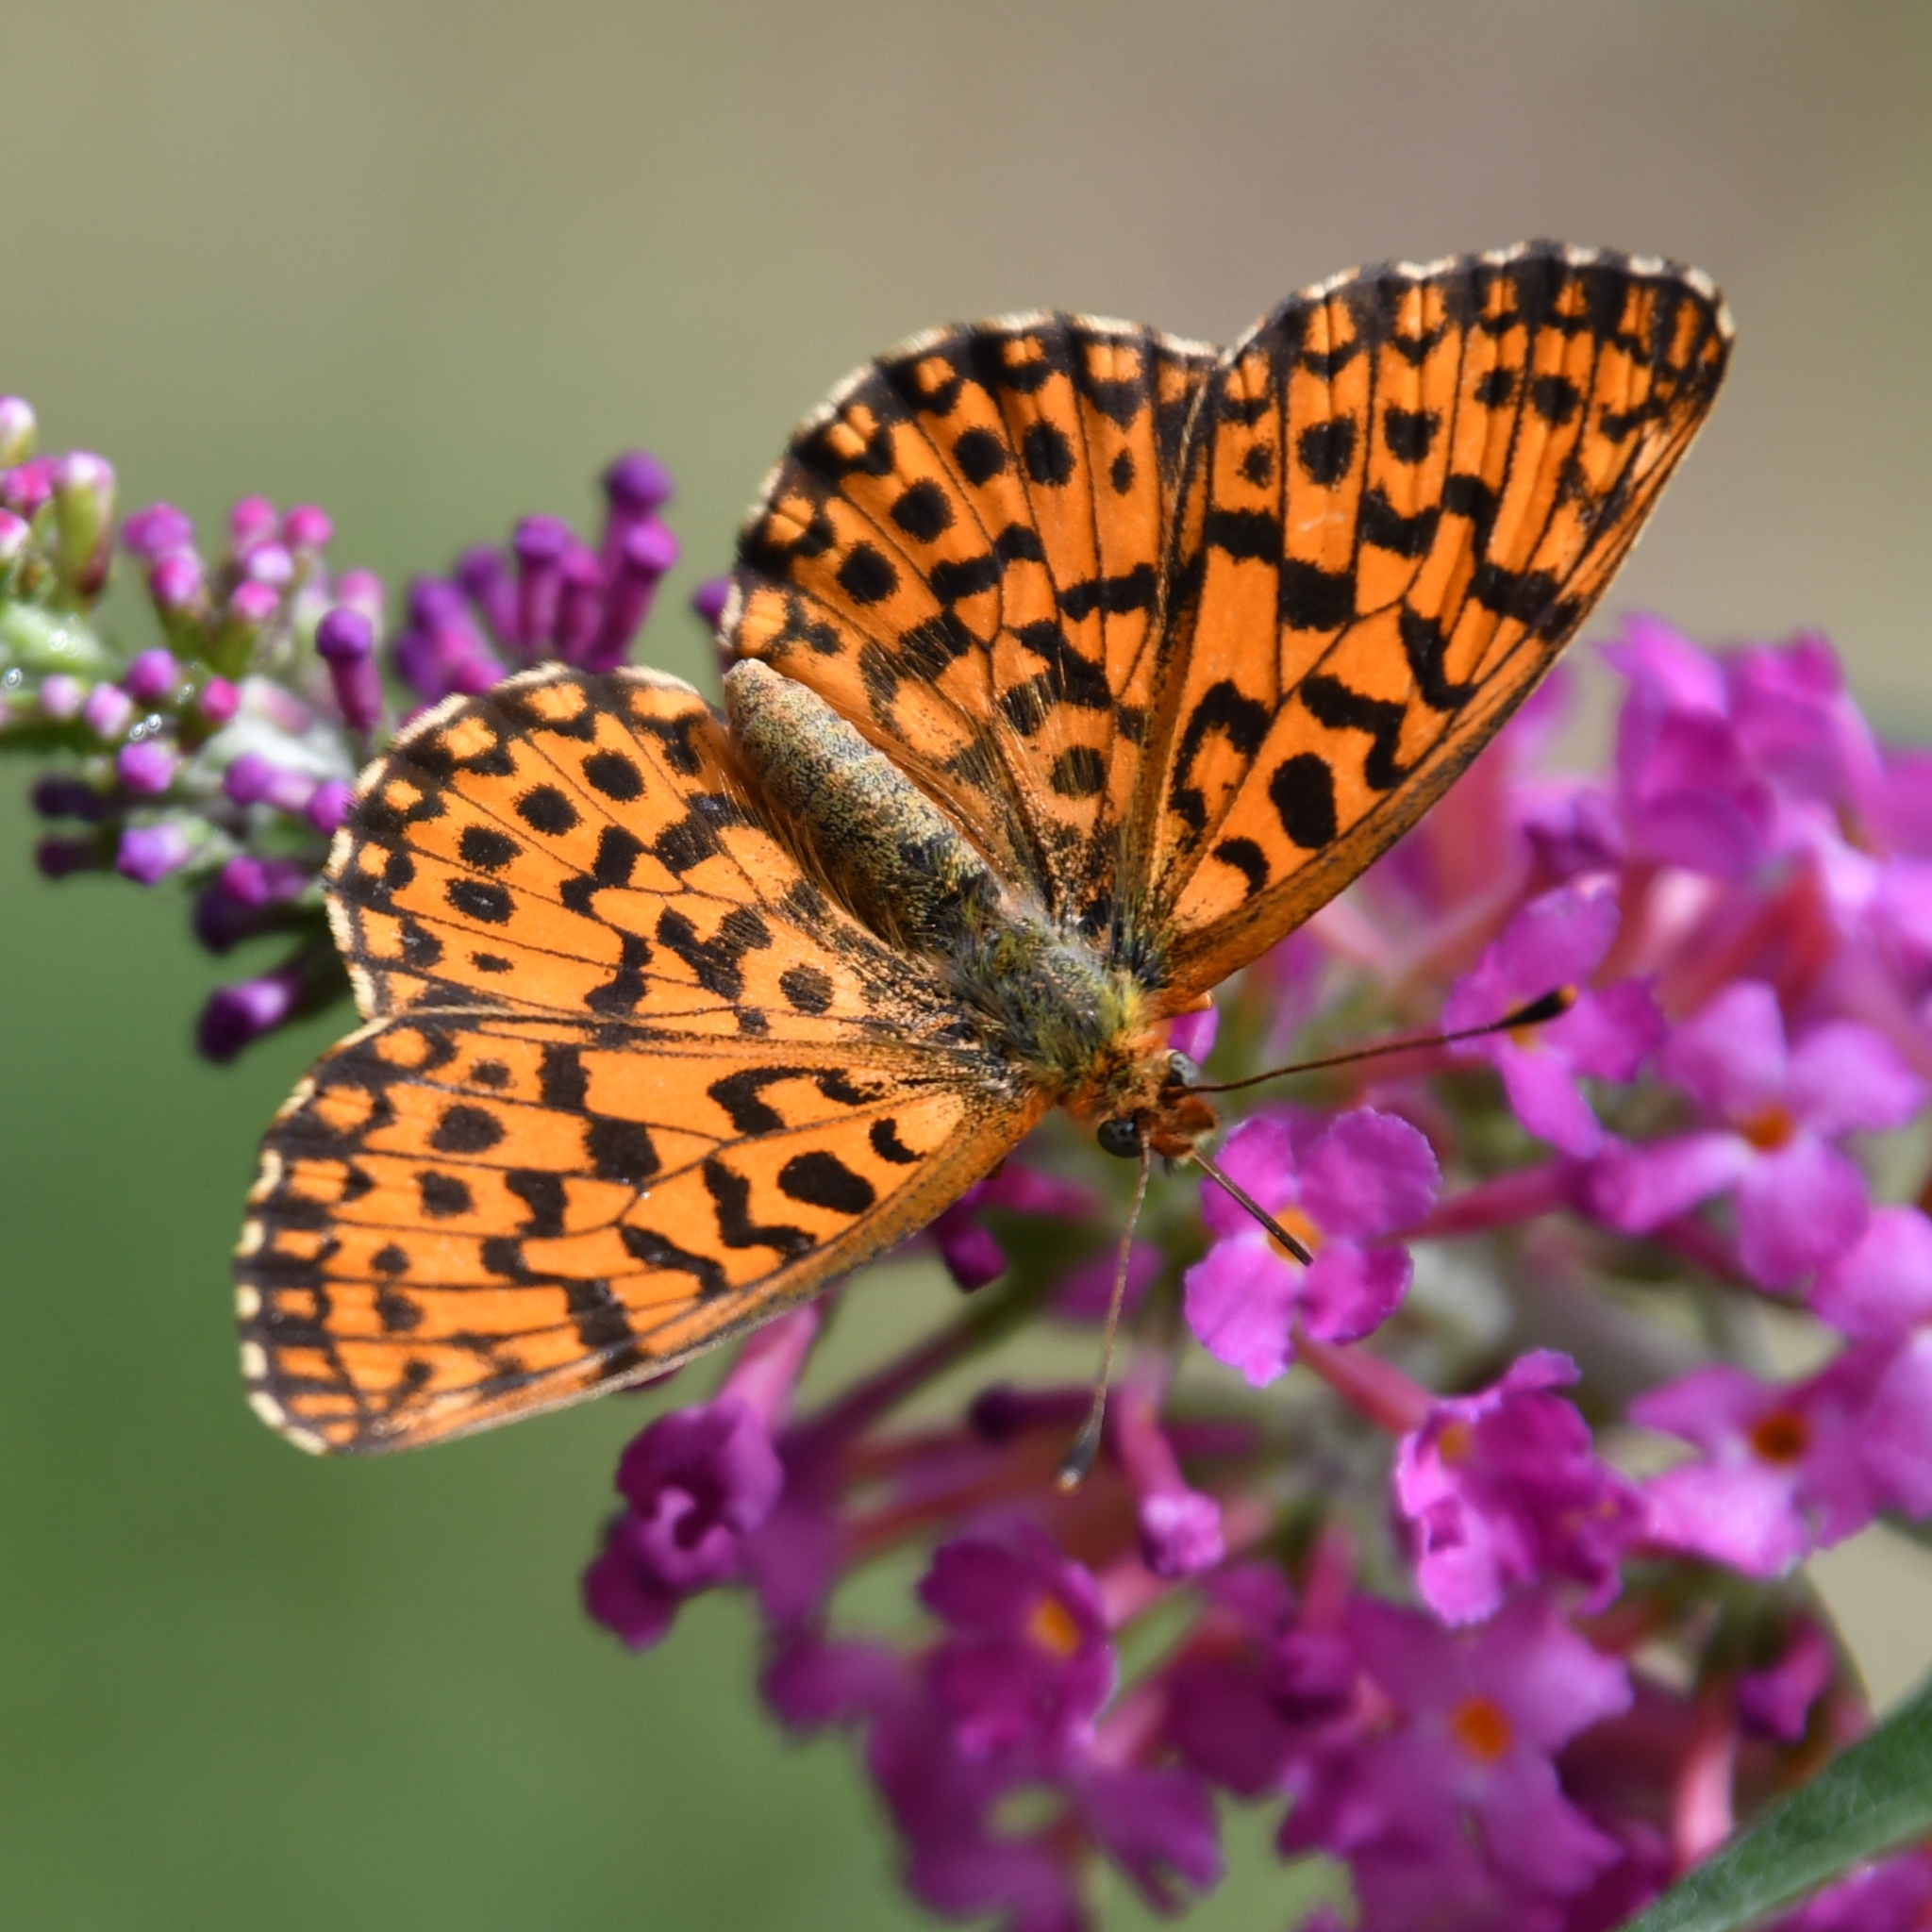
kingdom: Animalia
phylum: Arthropoda
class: Insecta
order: Lepidoptera
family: Nymphalidae
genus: Boloria
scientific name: Boloria dia
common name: Weaver's fritillary
